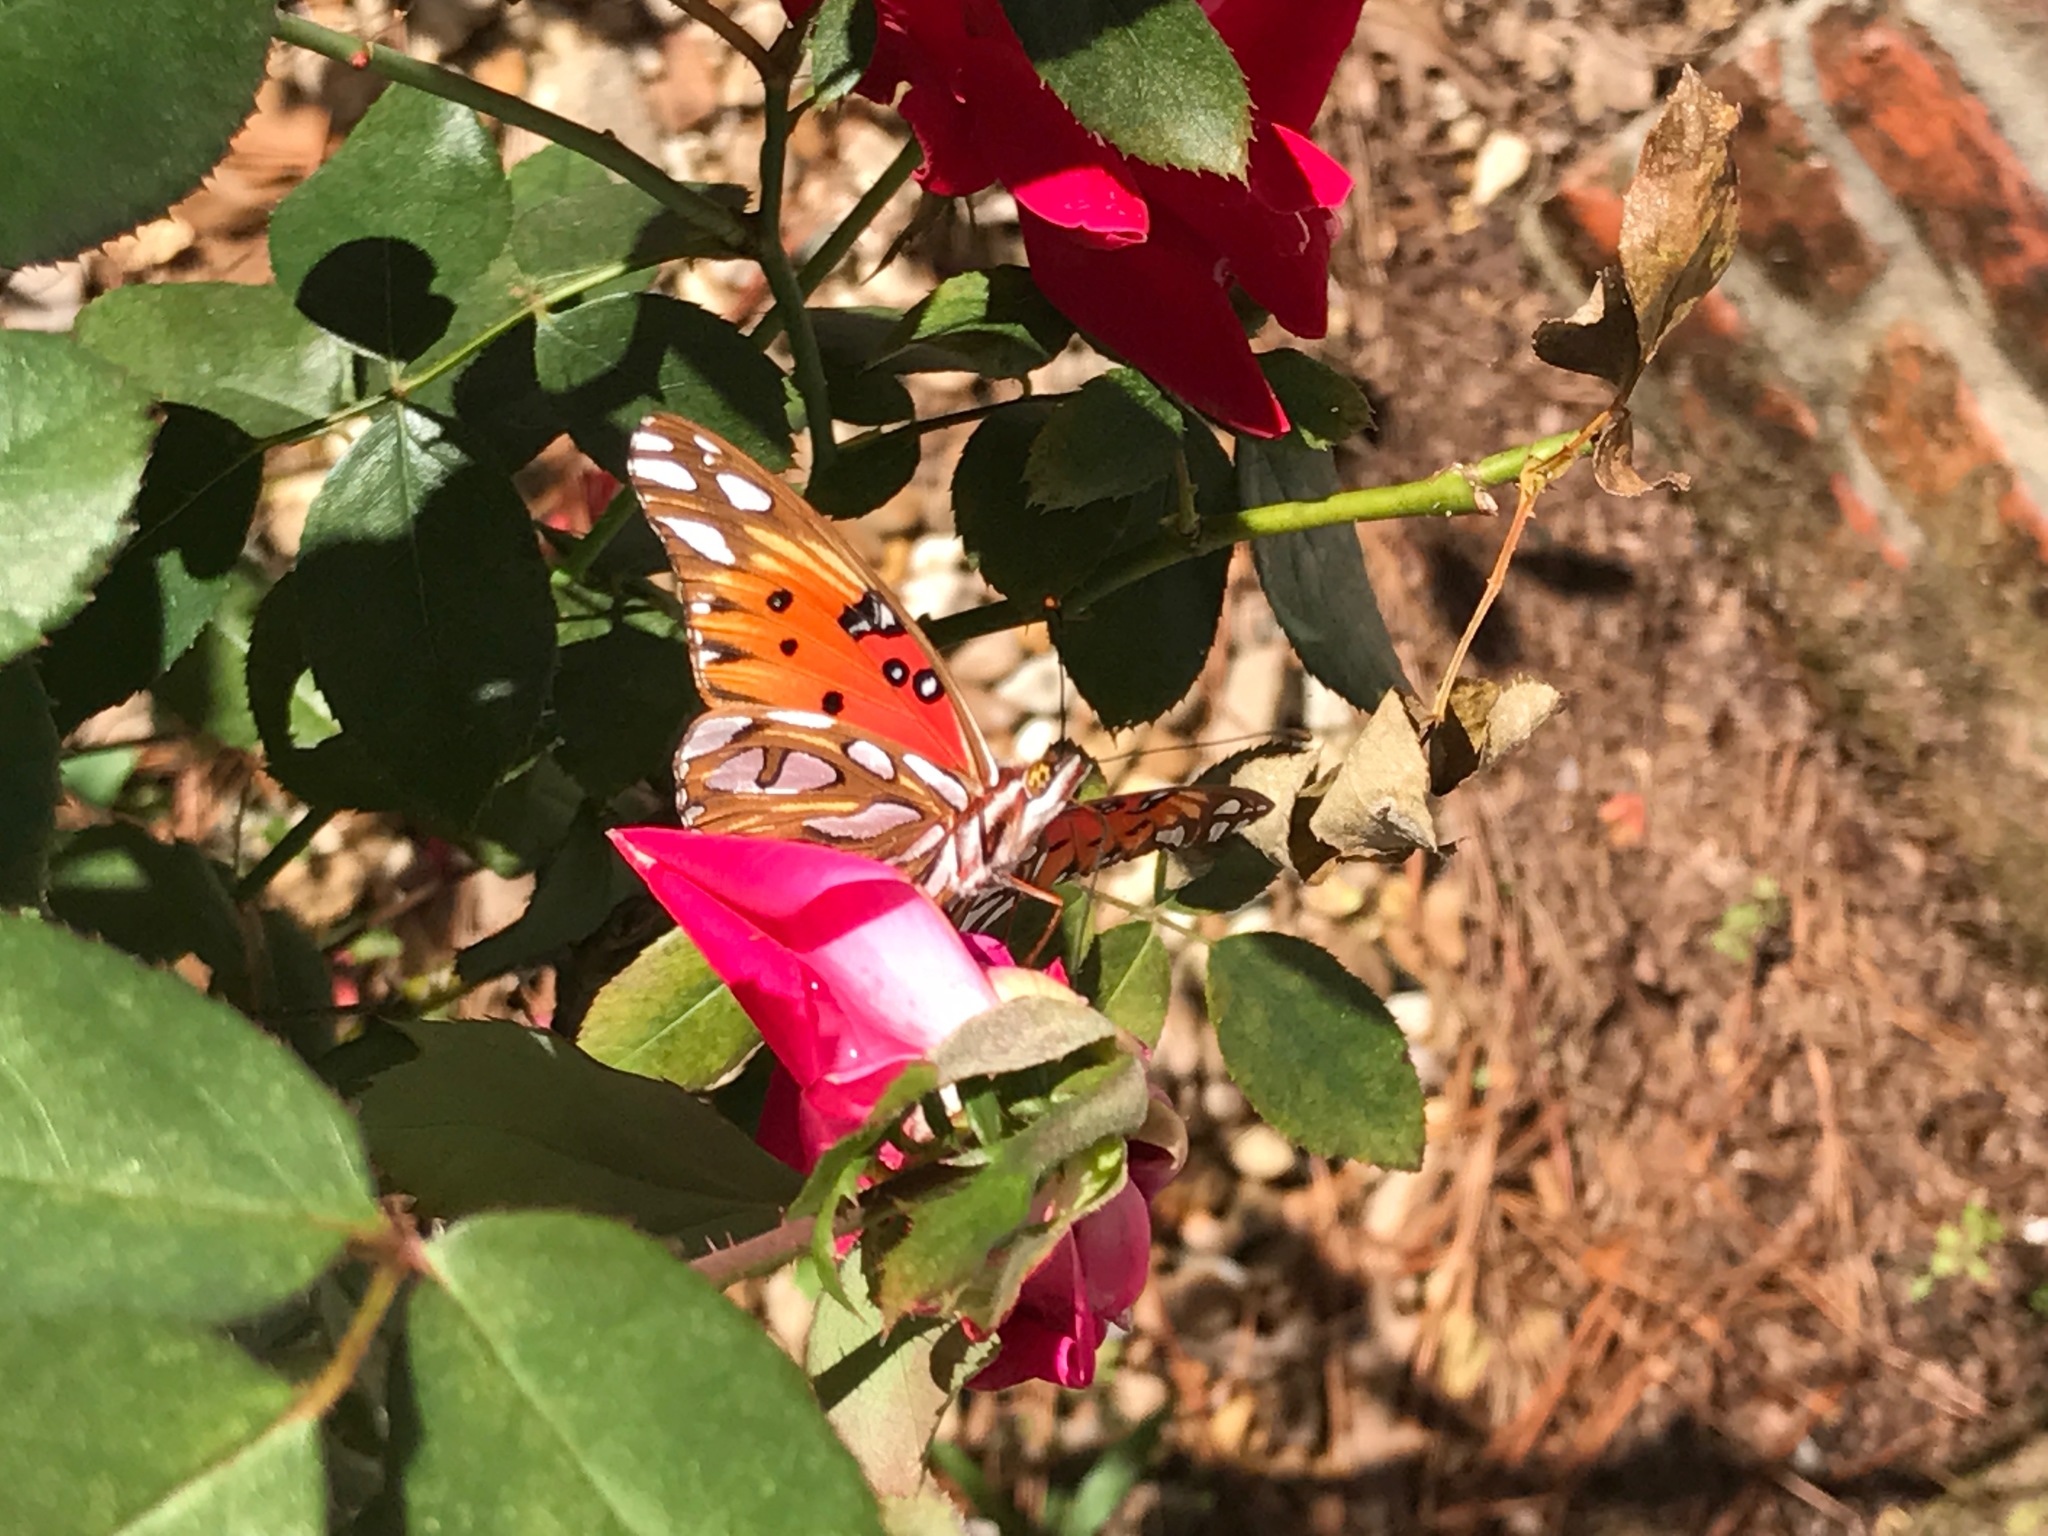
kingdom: Animalia
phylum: Arthropoda
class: Insecta
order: Lepidoptera
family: Nymphalidae
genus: Dione
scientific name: Dione vanillae
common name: Gulf fritillary
